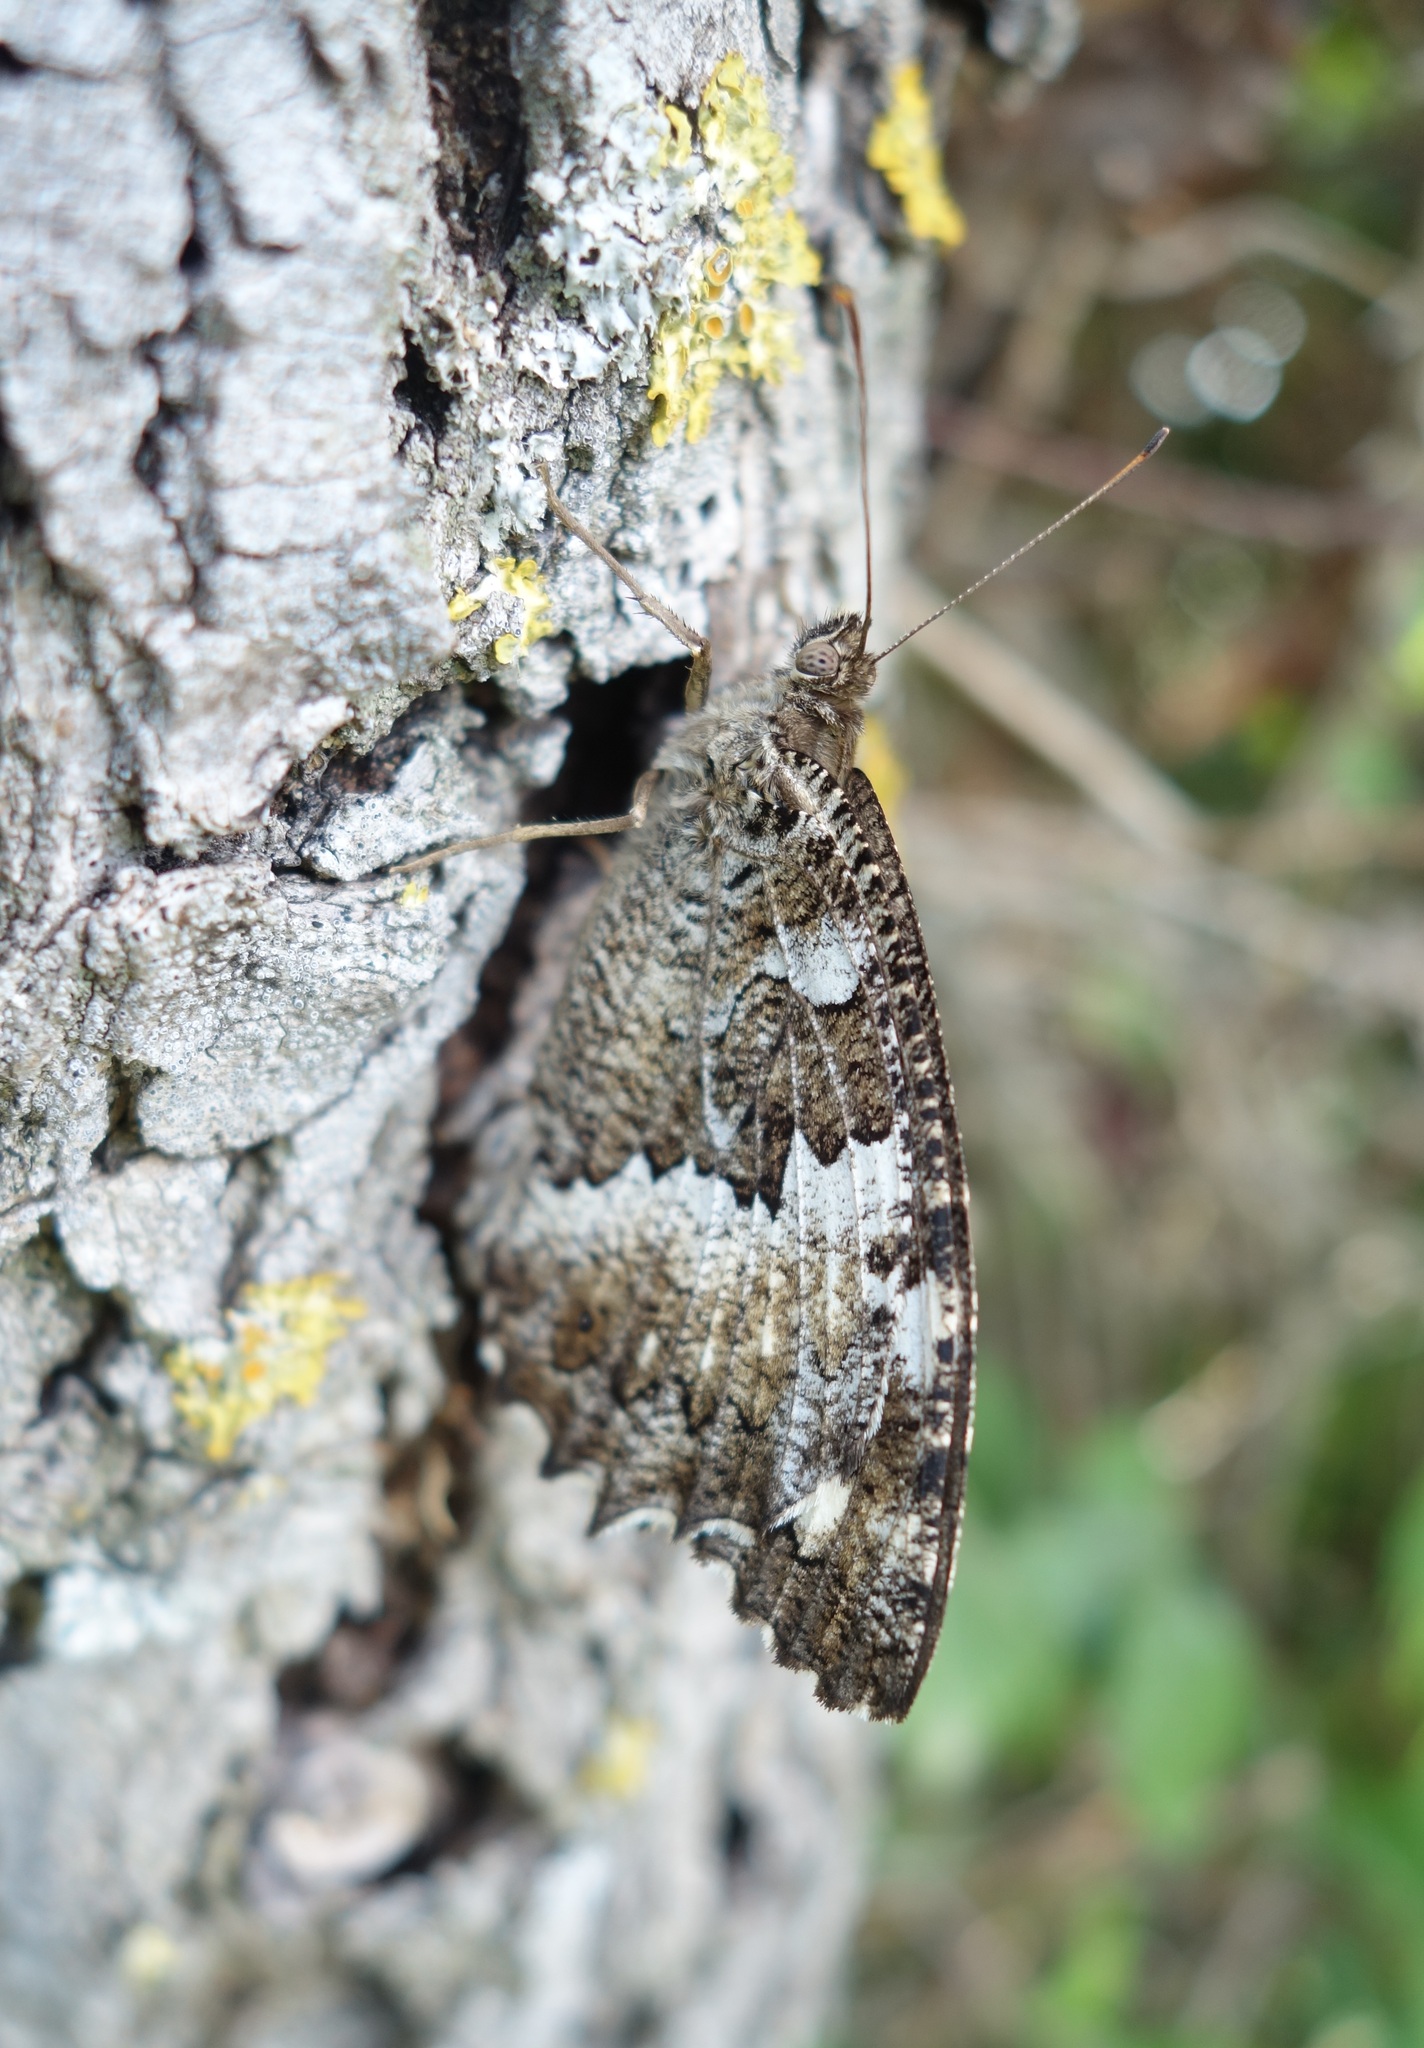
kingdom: Animalia
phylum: Arthropoda
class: Insecta
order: Lepidoptera
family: Lycaenidae
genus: Loweia
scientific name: Loweia tityrus
